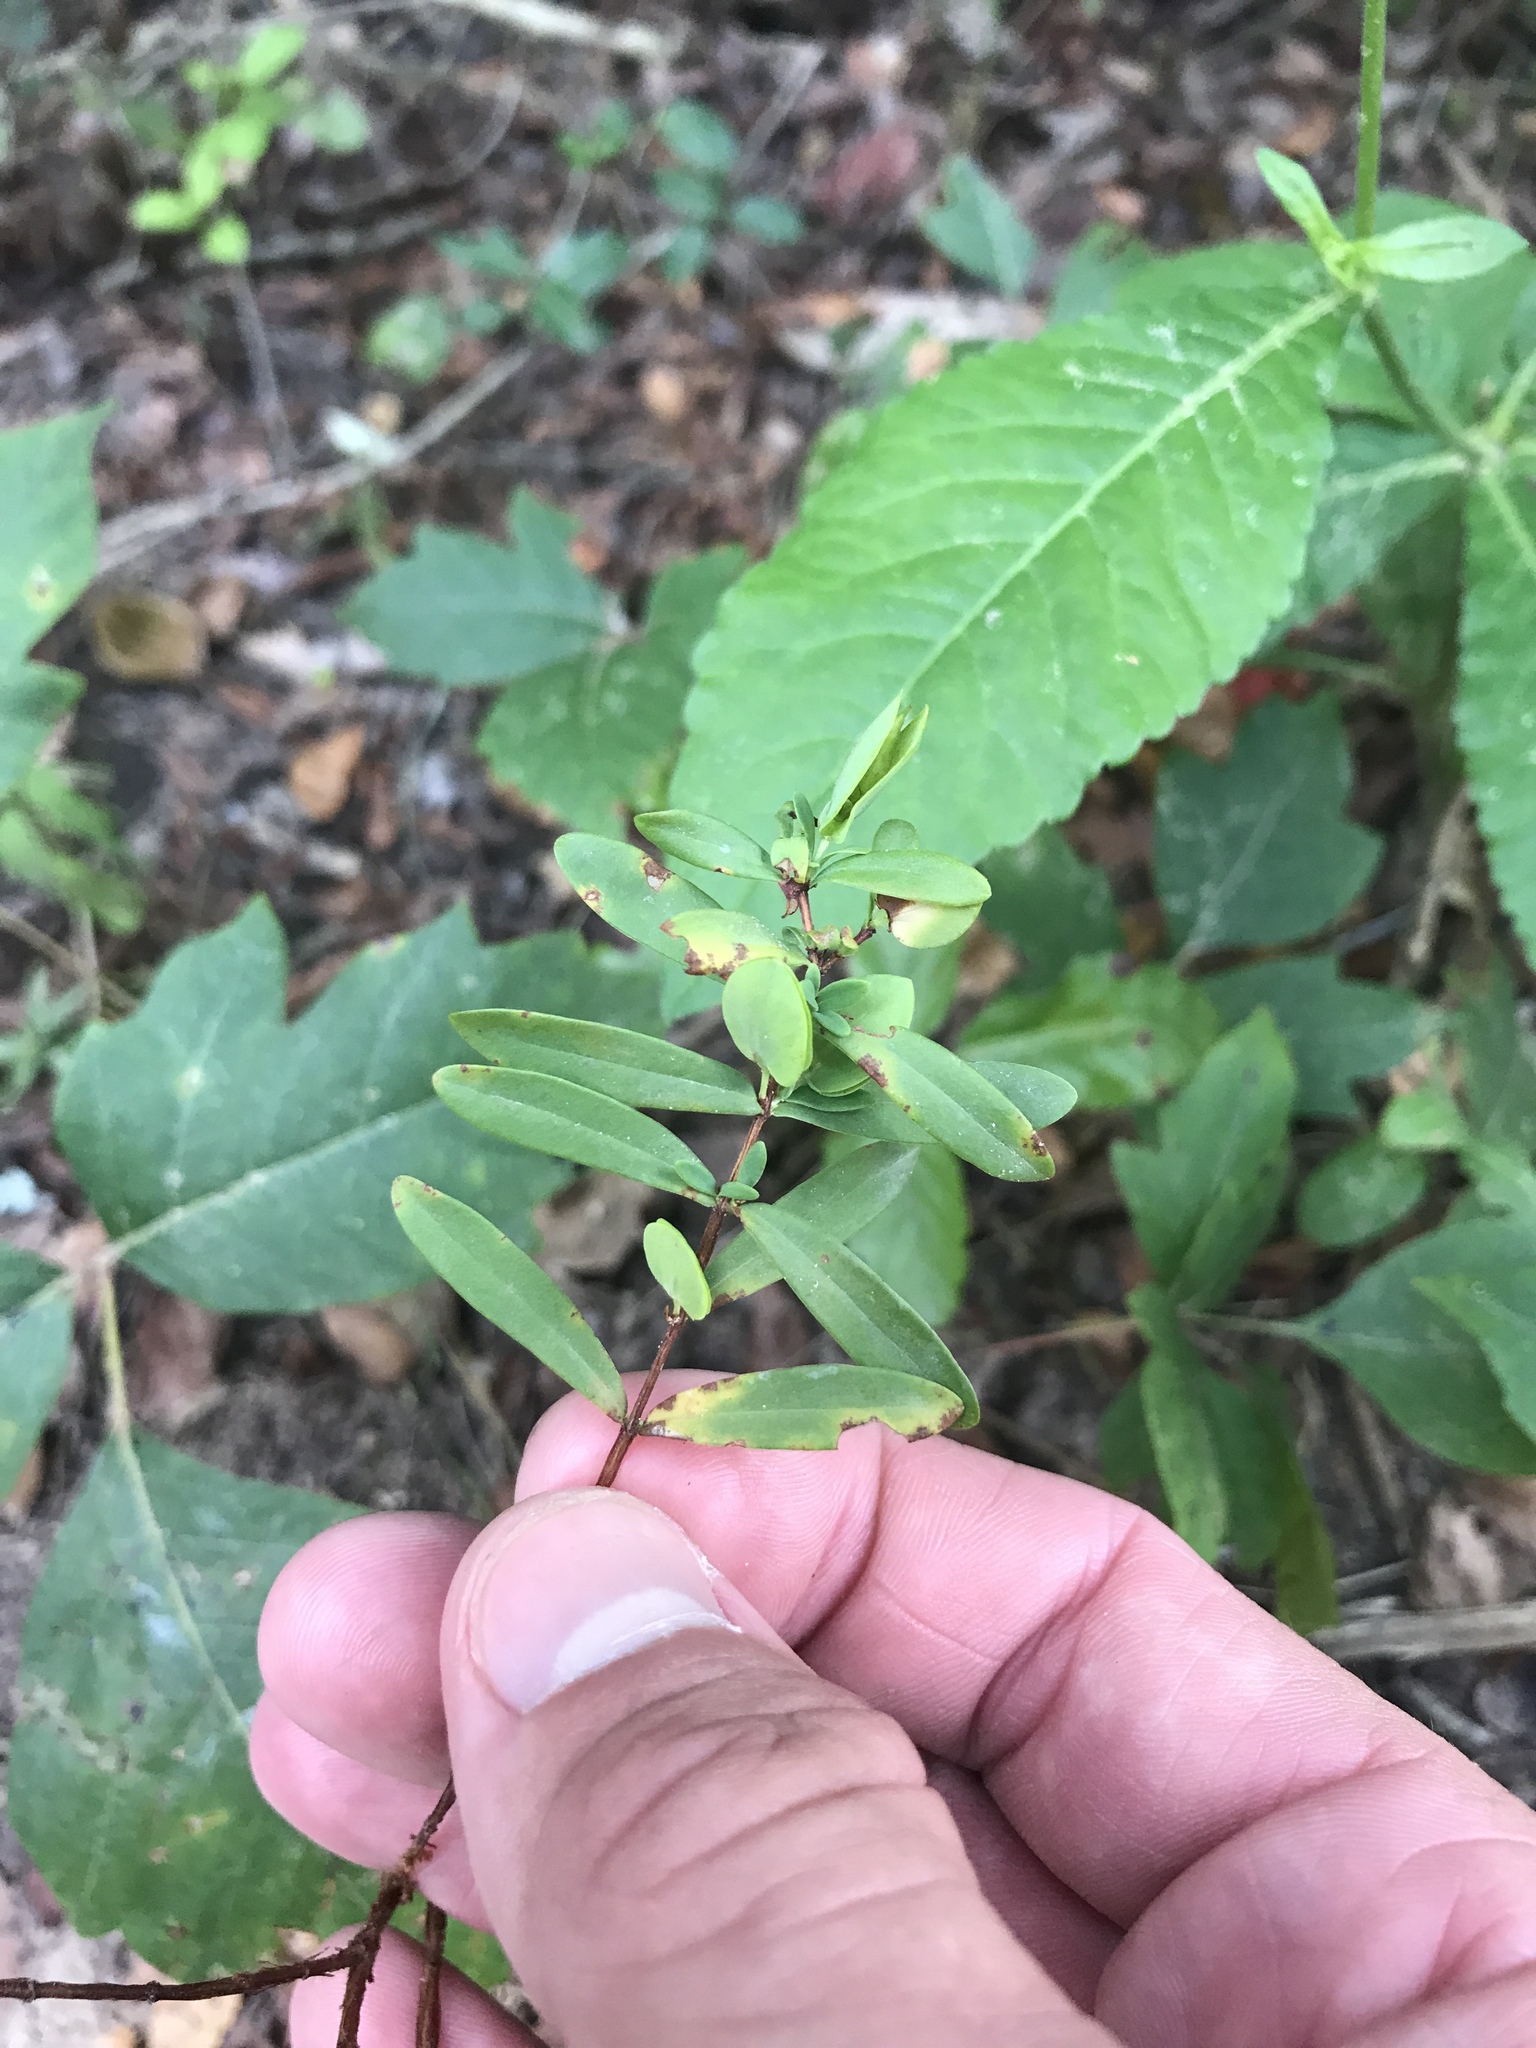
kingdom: Plantae
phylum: Tracheophyta
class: Magnoliopsida
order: Malpighiales
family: Hypericaceae
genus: Hypericum
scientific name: Hypericum hypericoides
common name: St. andrew's cross
